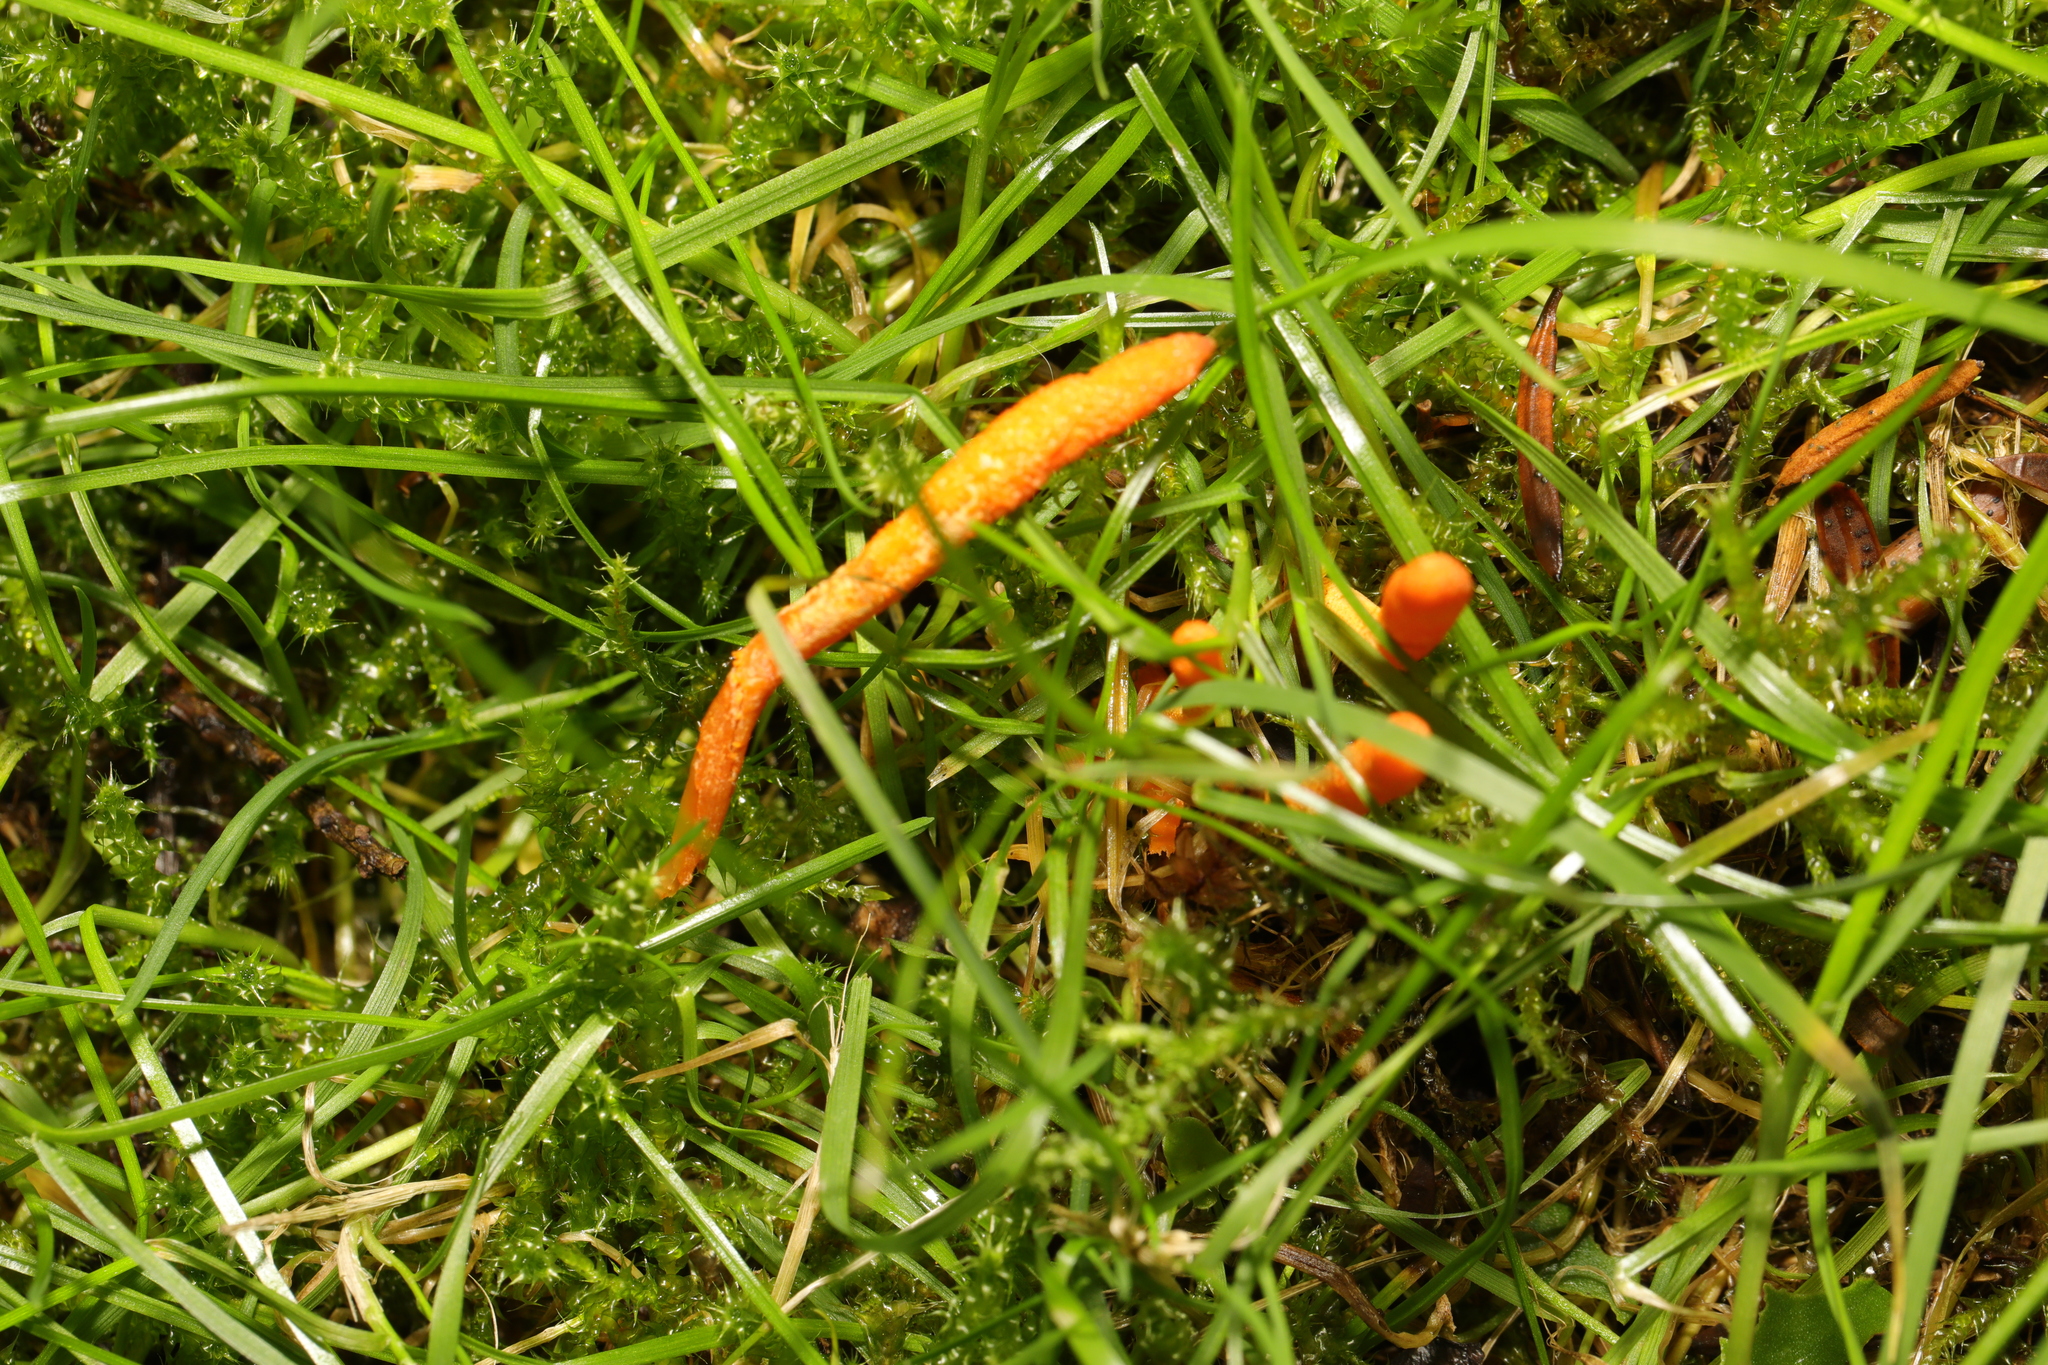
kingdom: Fungi
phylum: Ascomycota
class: Sordariomycetes
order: Hypocreales
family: Cordycipitaceae
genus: Cordyceps
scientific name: Cordyceps militaris
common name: Scarlet caterpillar fungus
